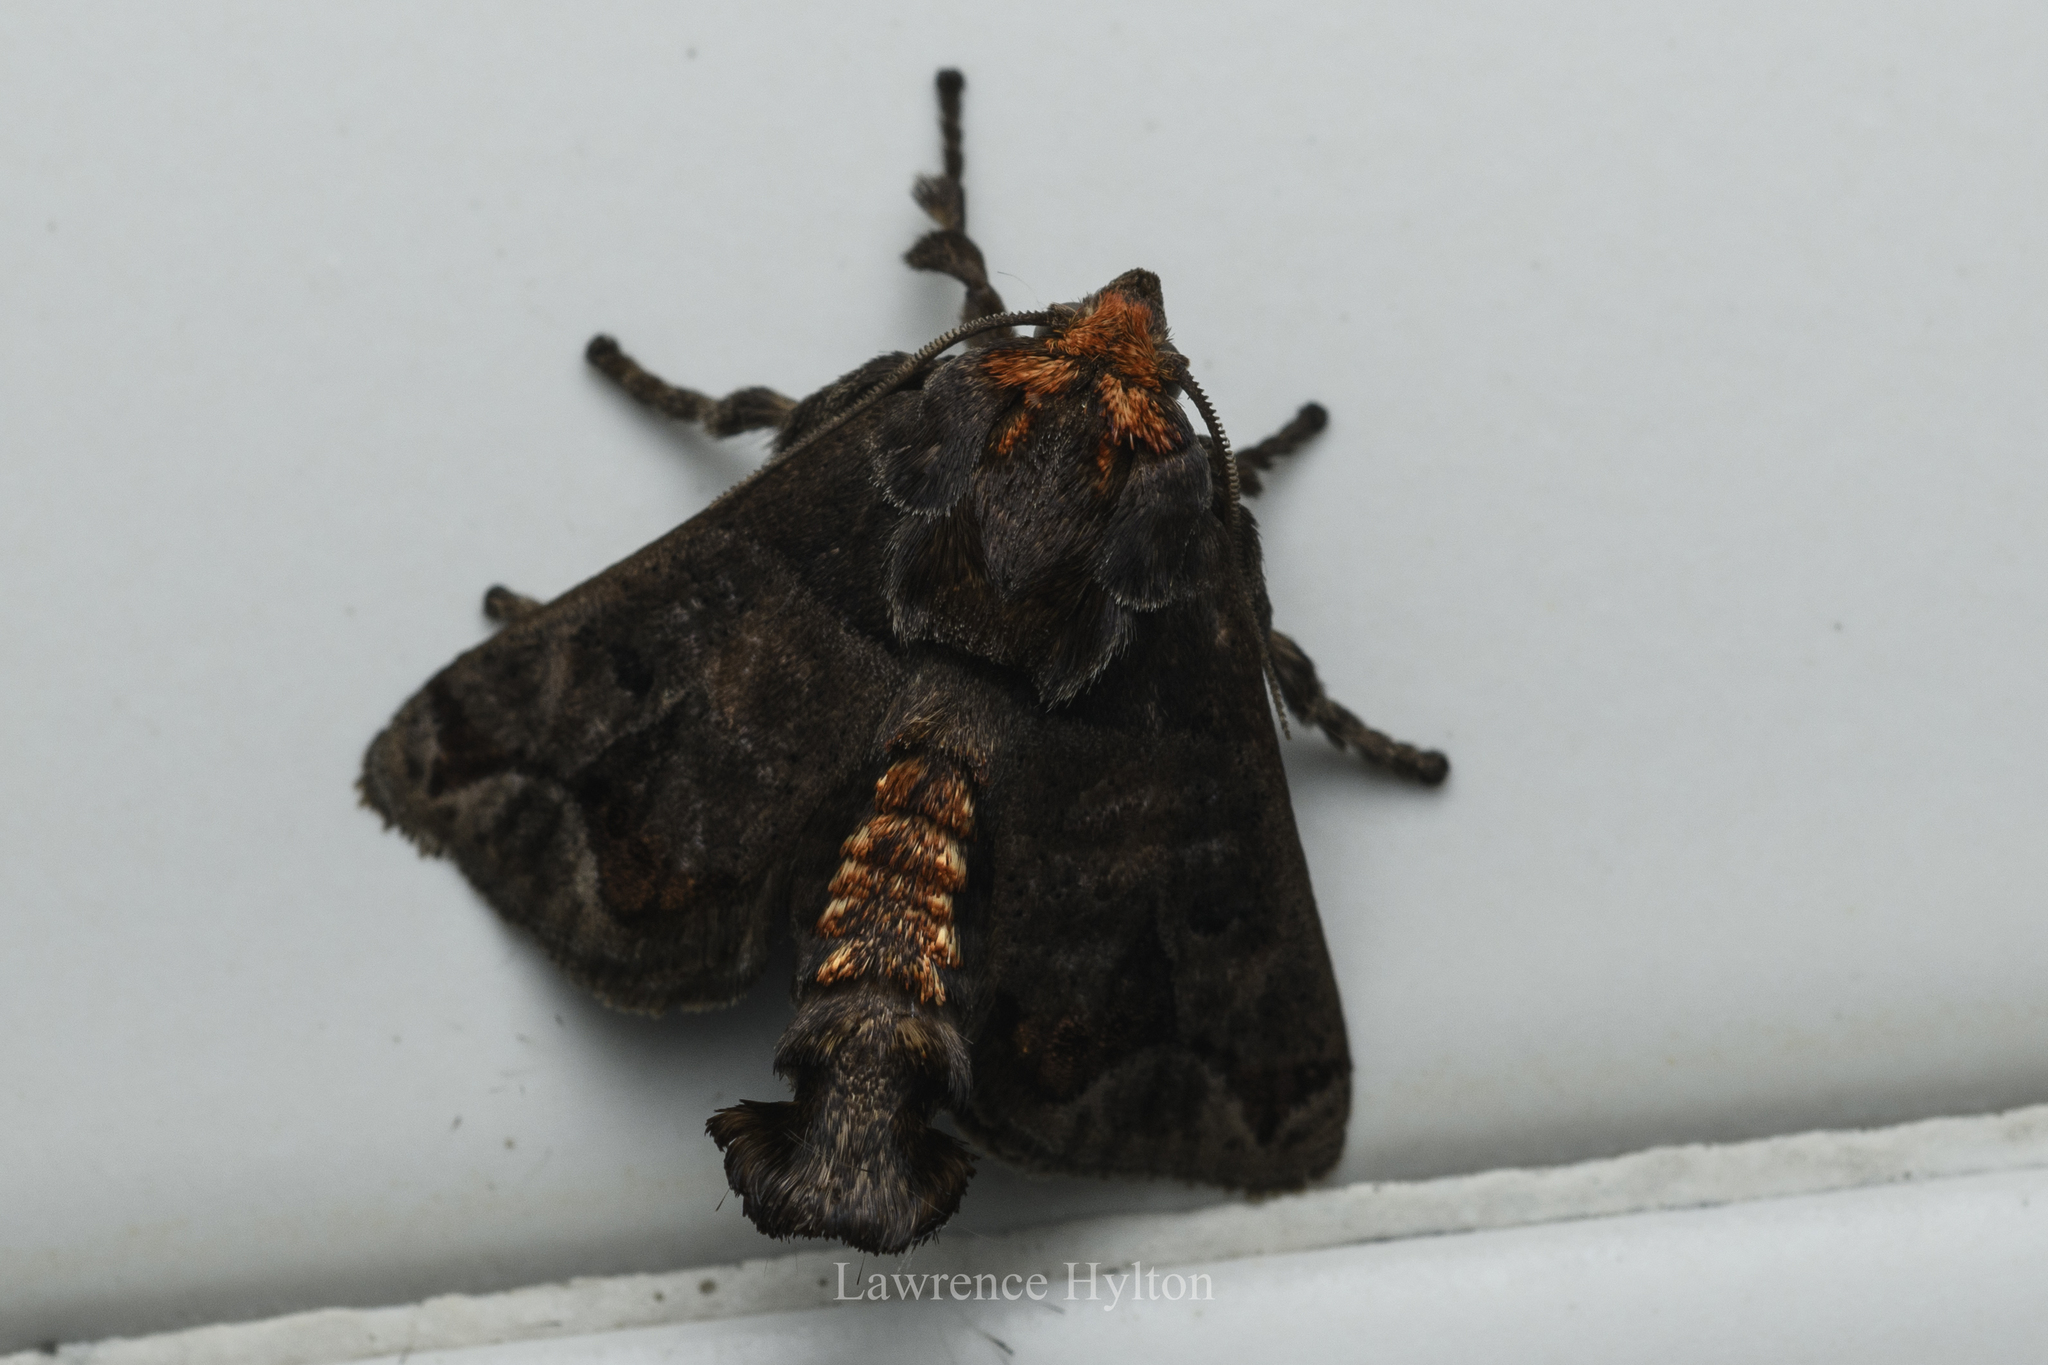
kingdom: Animalia
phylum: Arthropoda
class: Insecta
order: Lepidoptera
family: Limacodidae
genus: Phlossa
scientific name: Phlossa conjuncta
